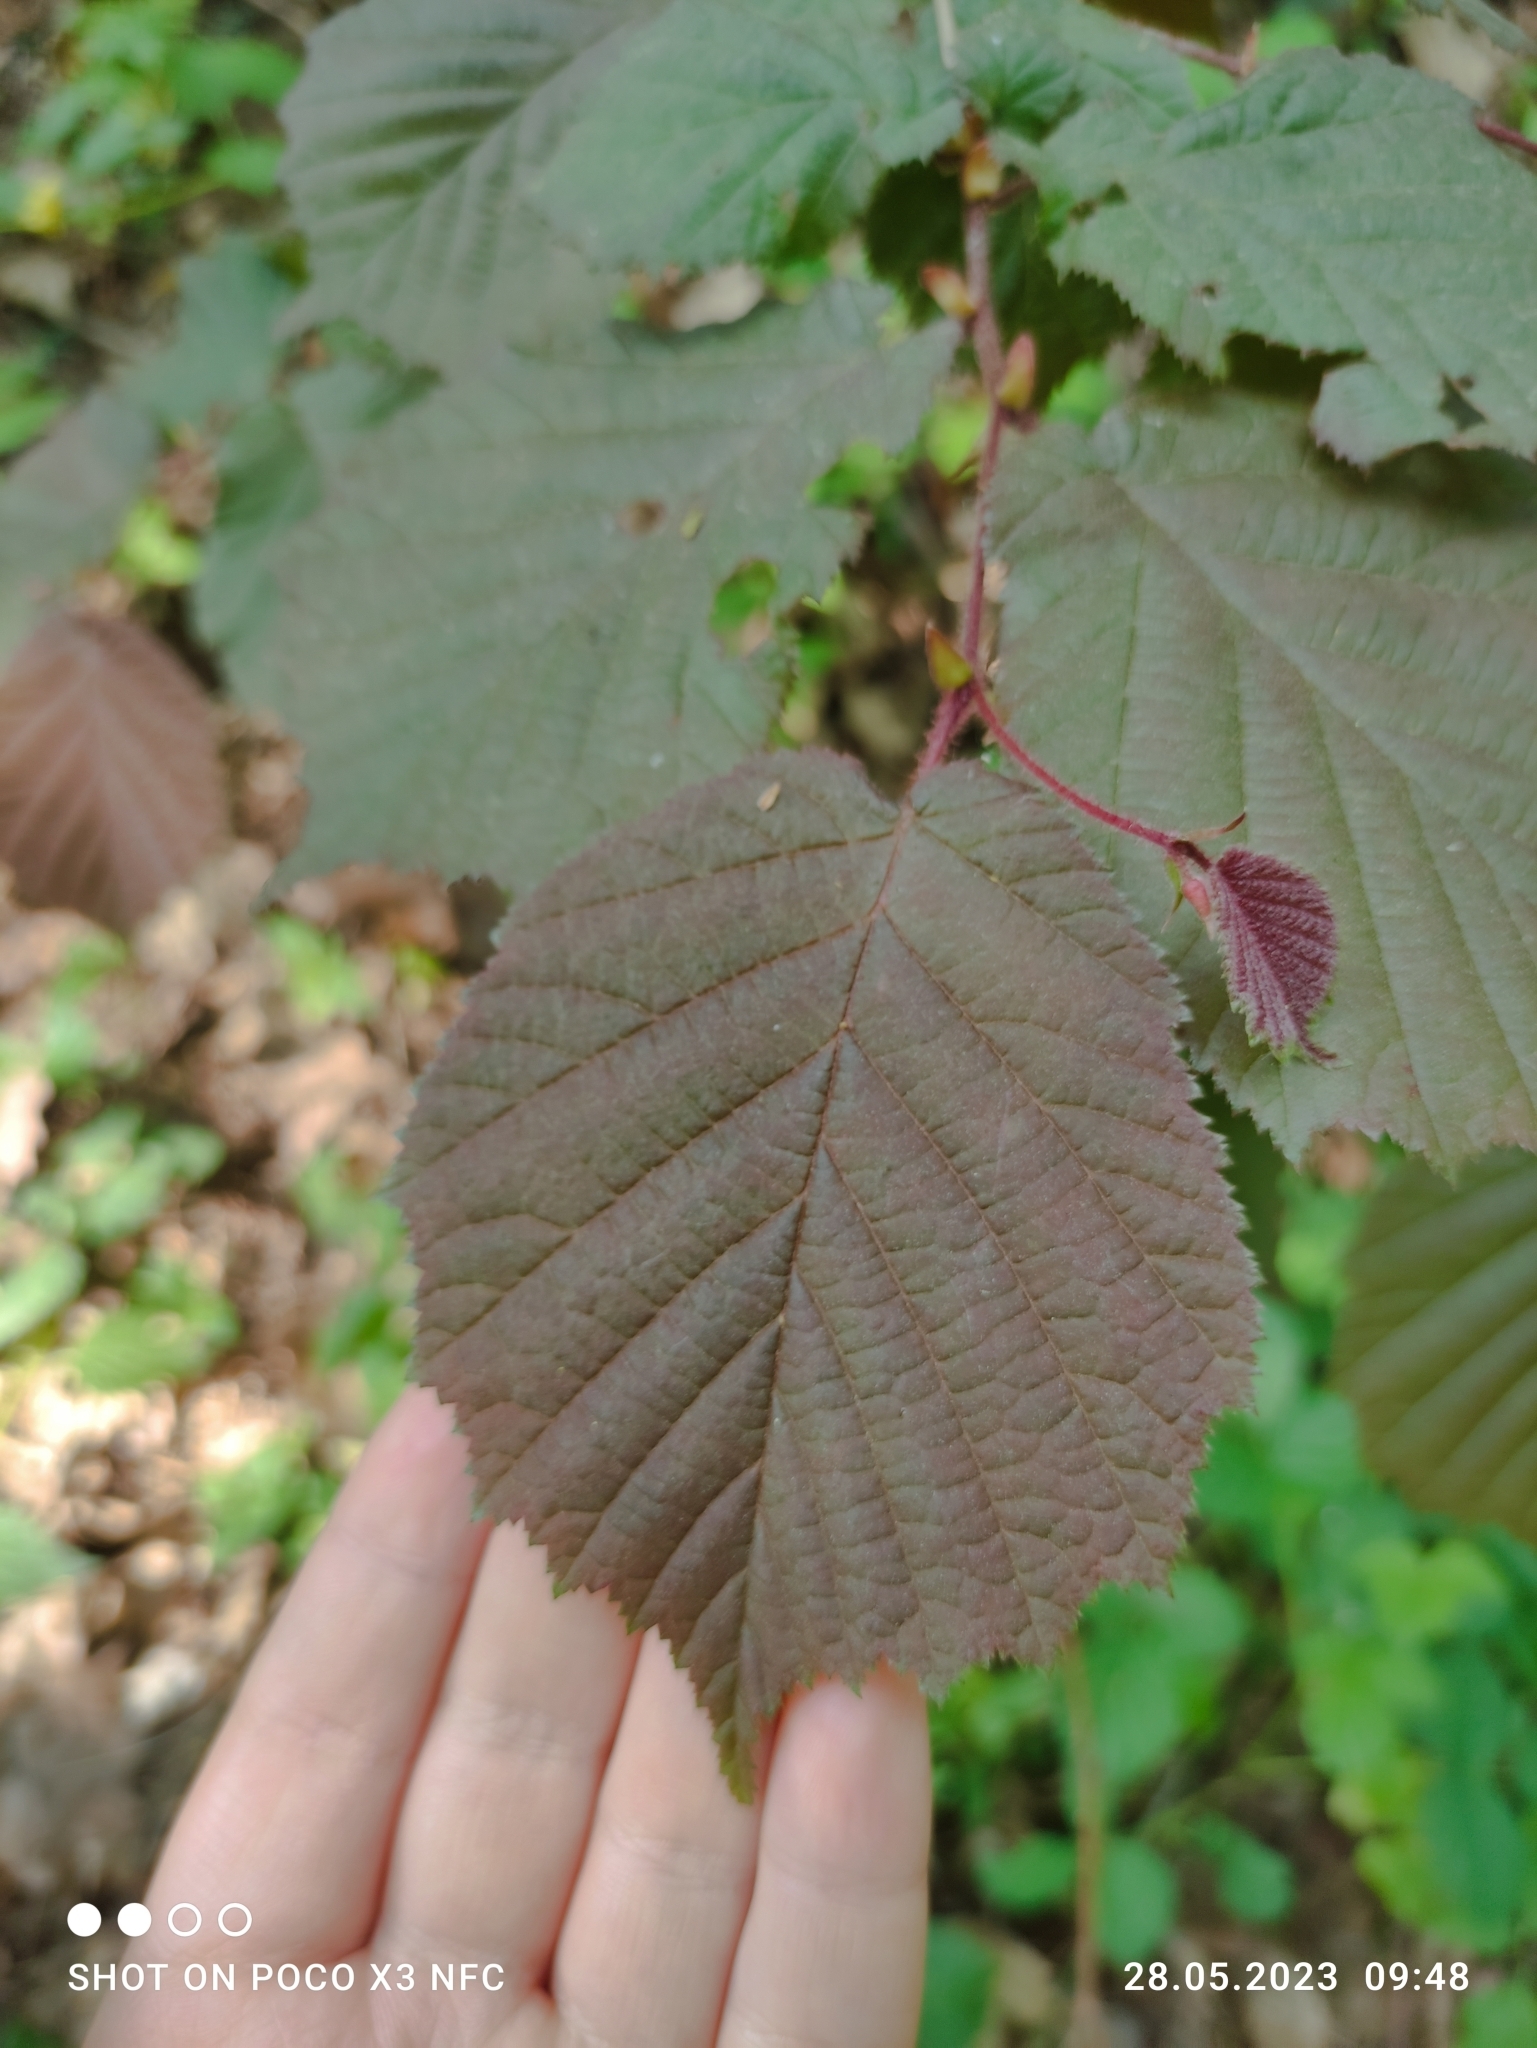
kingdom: Plantae
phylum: Tracheophyta
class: Magnoliopsida
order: Fagales
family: Betulaceae
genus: Corylus
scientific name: Corylus avellana
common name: European hazel
